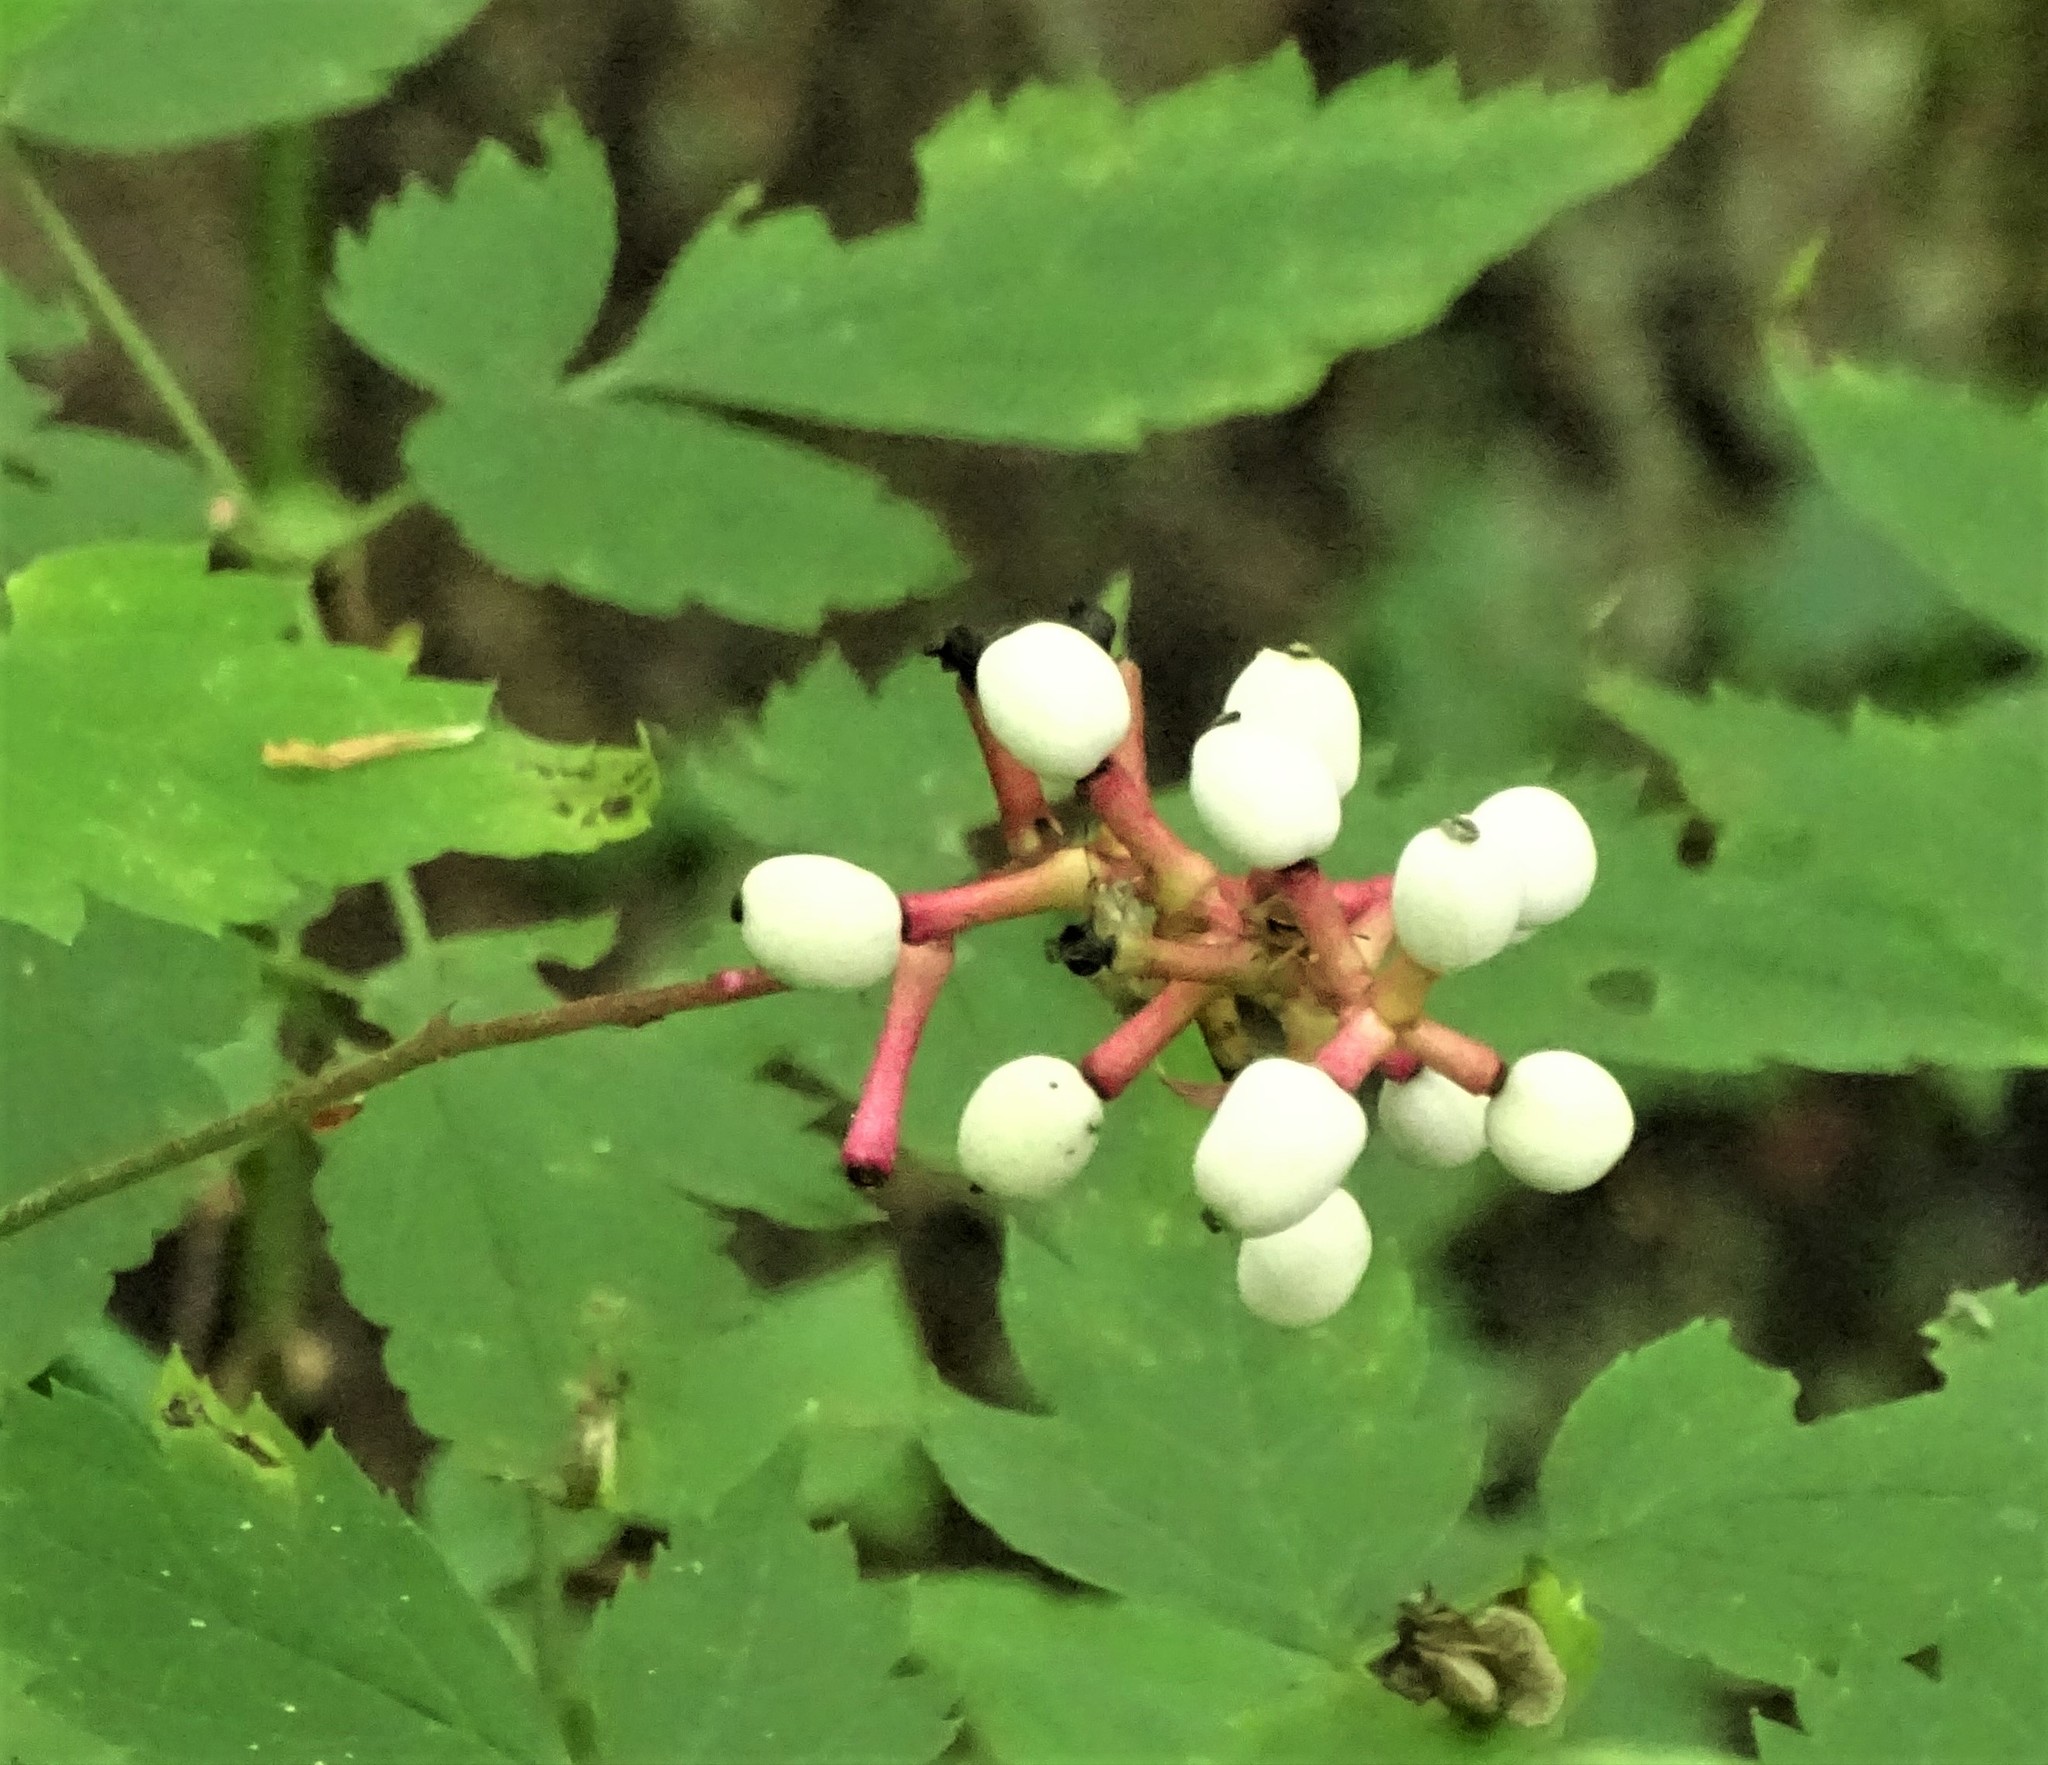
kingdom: Plantae
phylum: Tracheophyta
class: Magnoliopsida
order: Ranunculales
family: Ranunculaceae
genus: Actaea
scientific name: Actaea pachypoda
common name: Doll's-eyes
